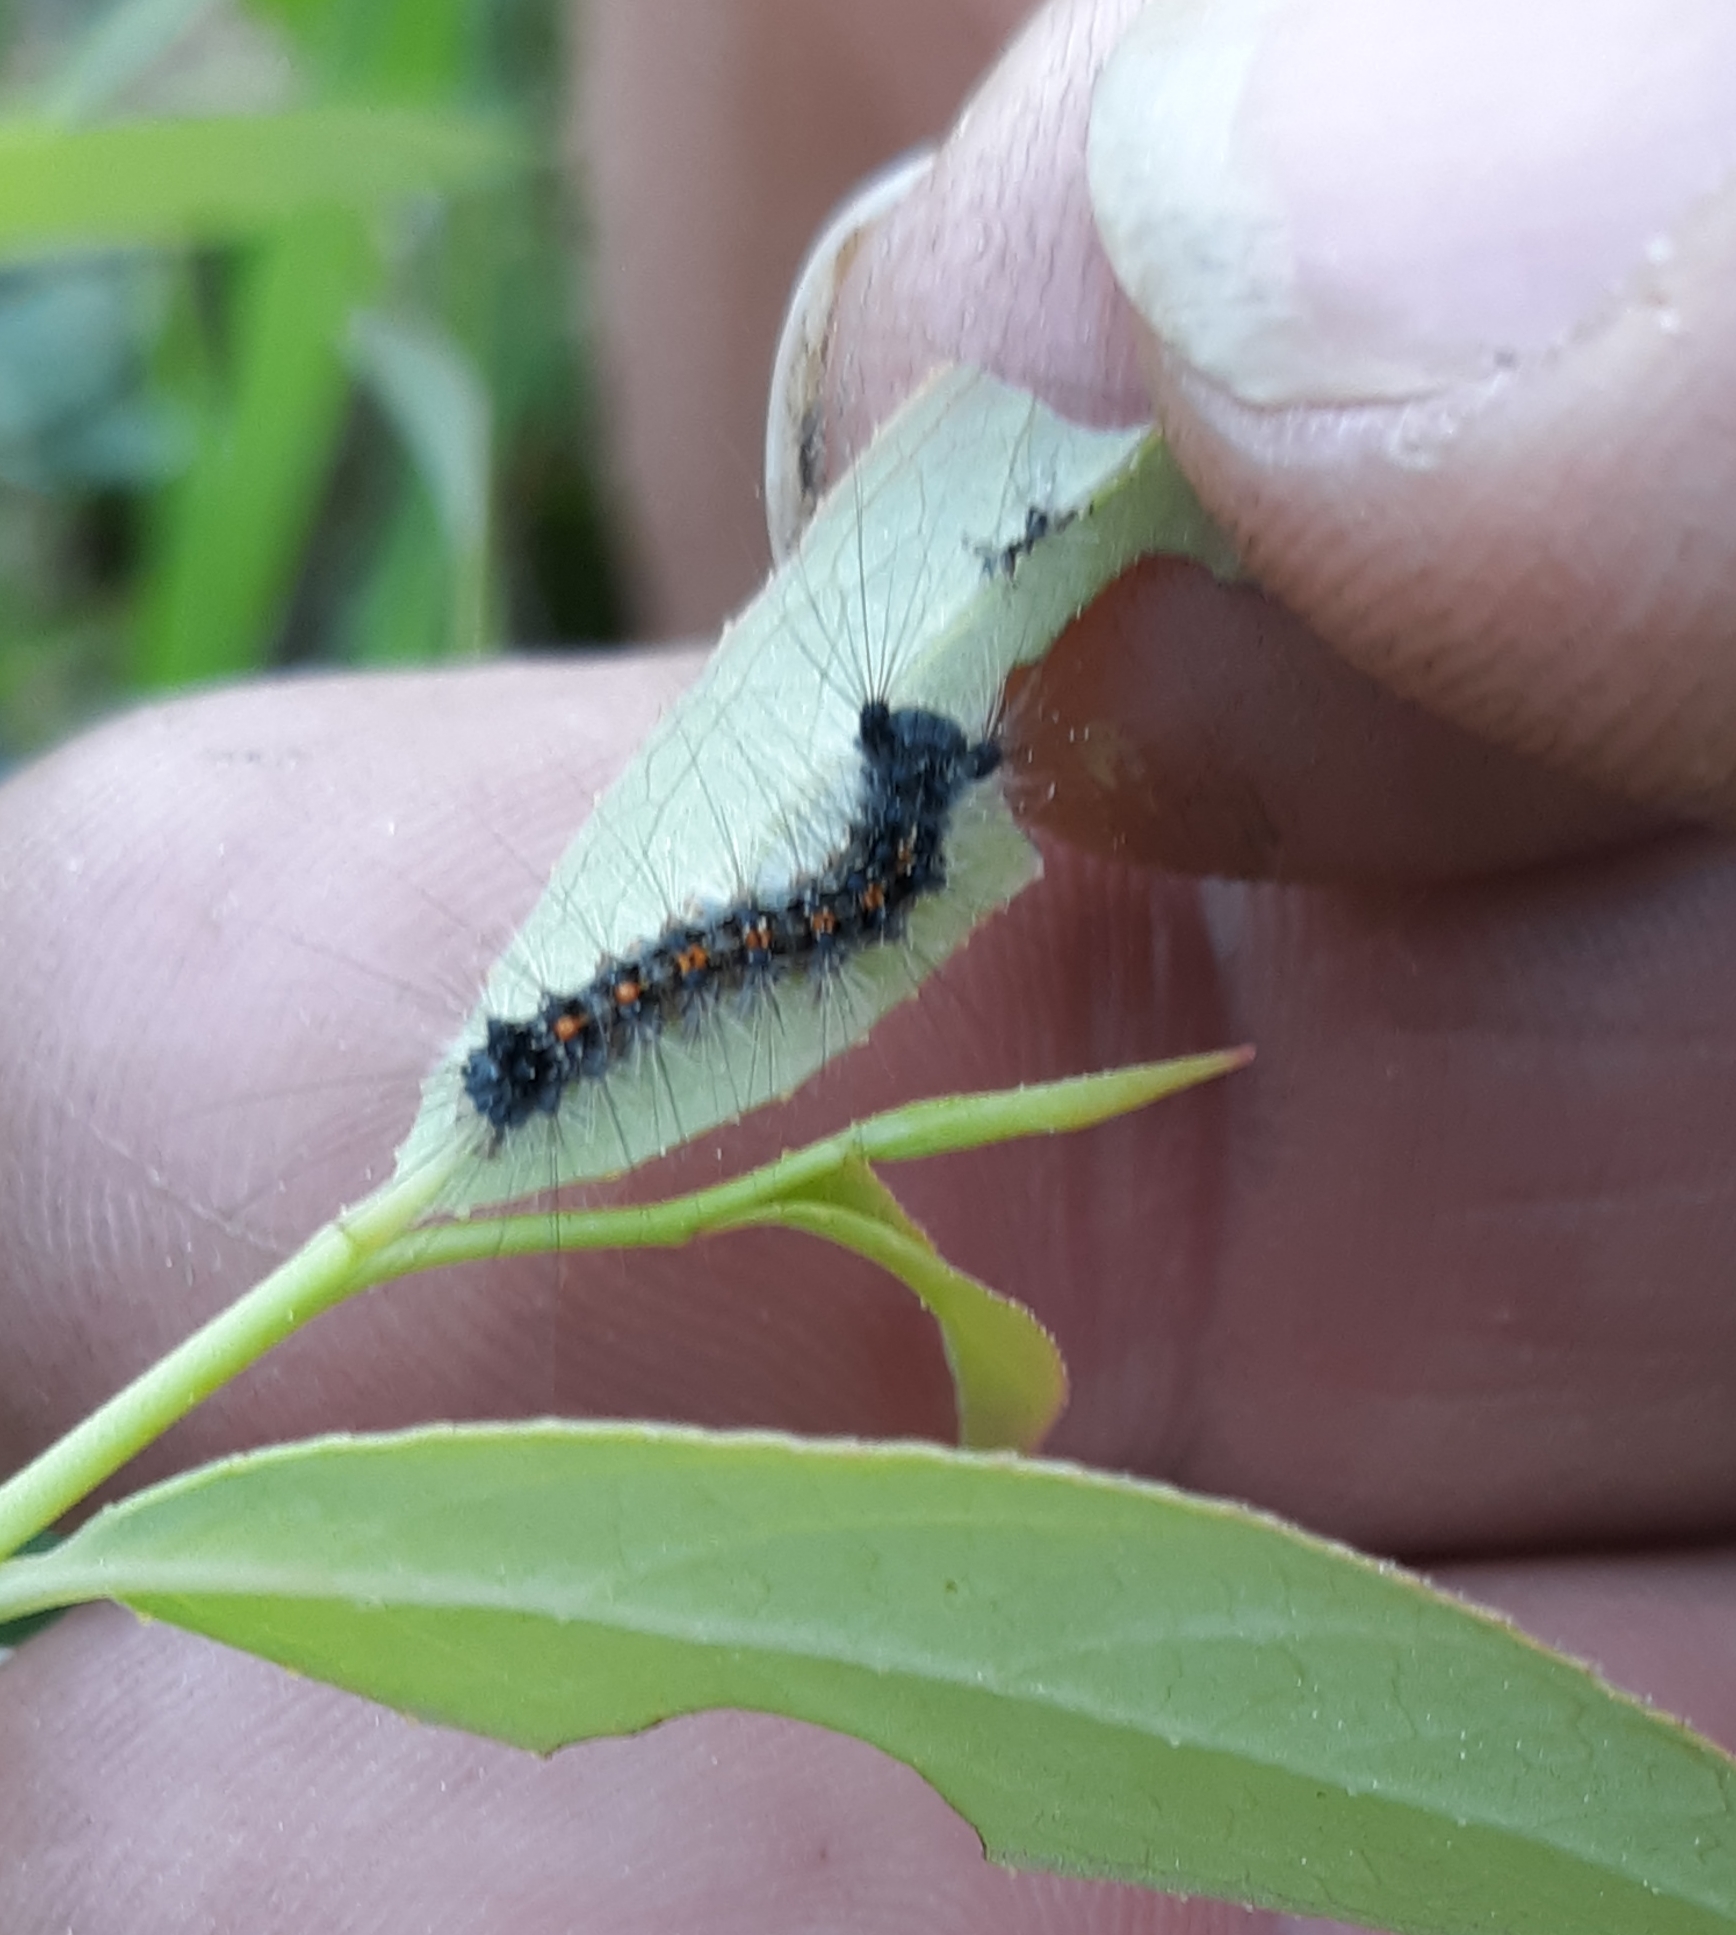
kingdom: Animalia
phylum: Arthropoda
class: Insecta
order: Lepidoptera
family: Erebidae
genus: Lymantria
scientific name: Lymantria dispar
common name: Gypsy moth
